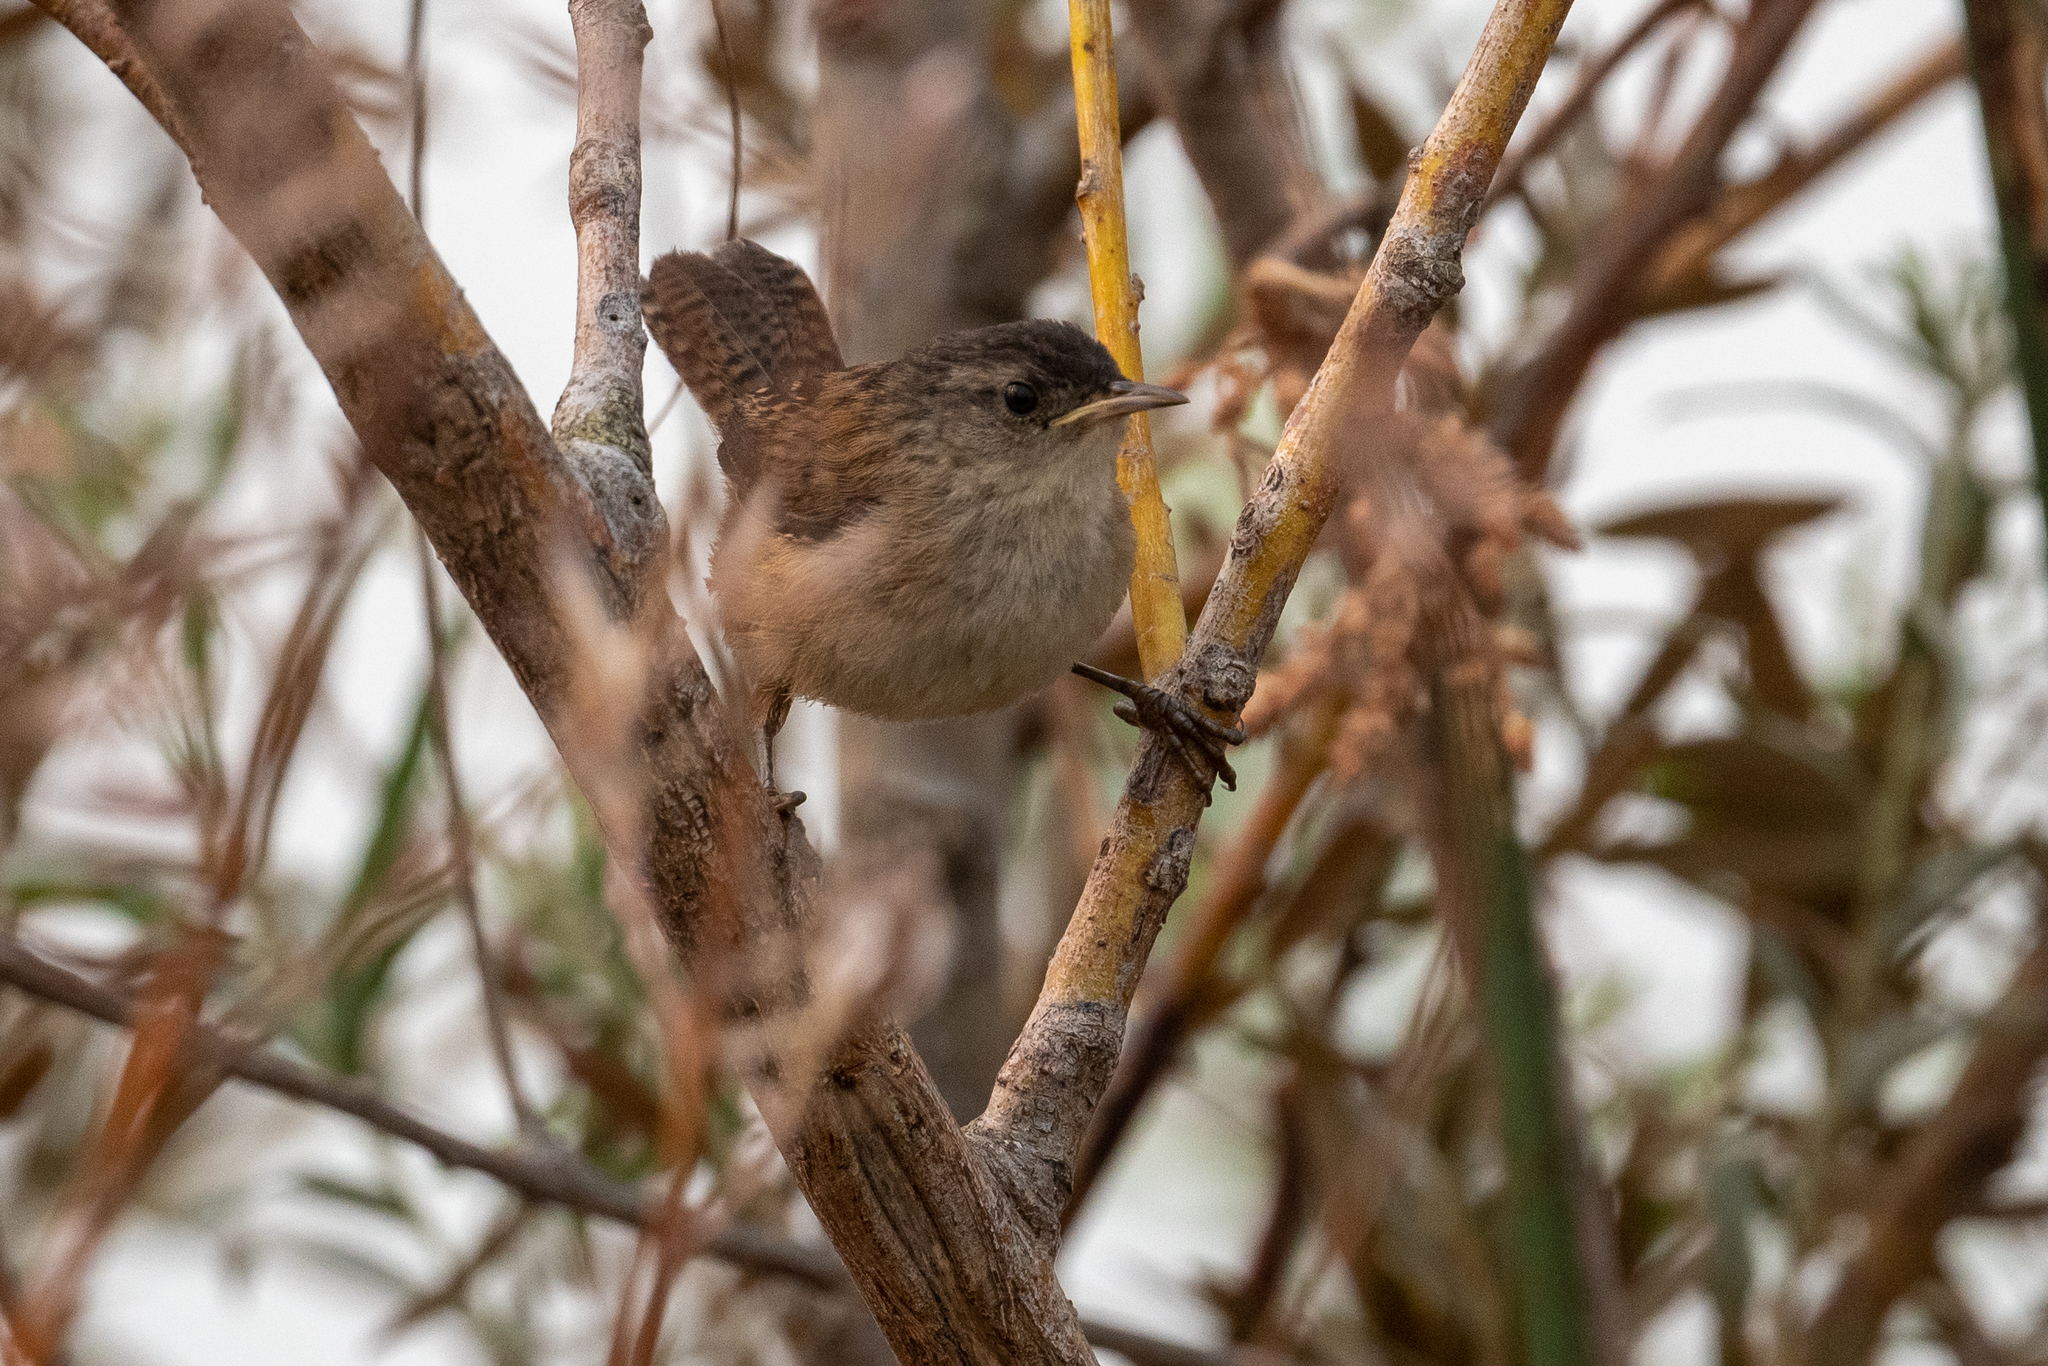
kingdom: Animalia
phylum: Chordata
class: Aves
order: Passeriformes
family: Troglodytidae
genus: Cistothorus
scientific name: Cistothorus palustris
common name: Marsh wren
